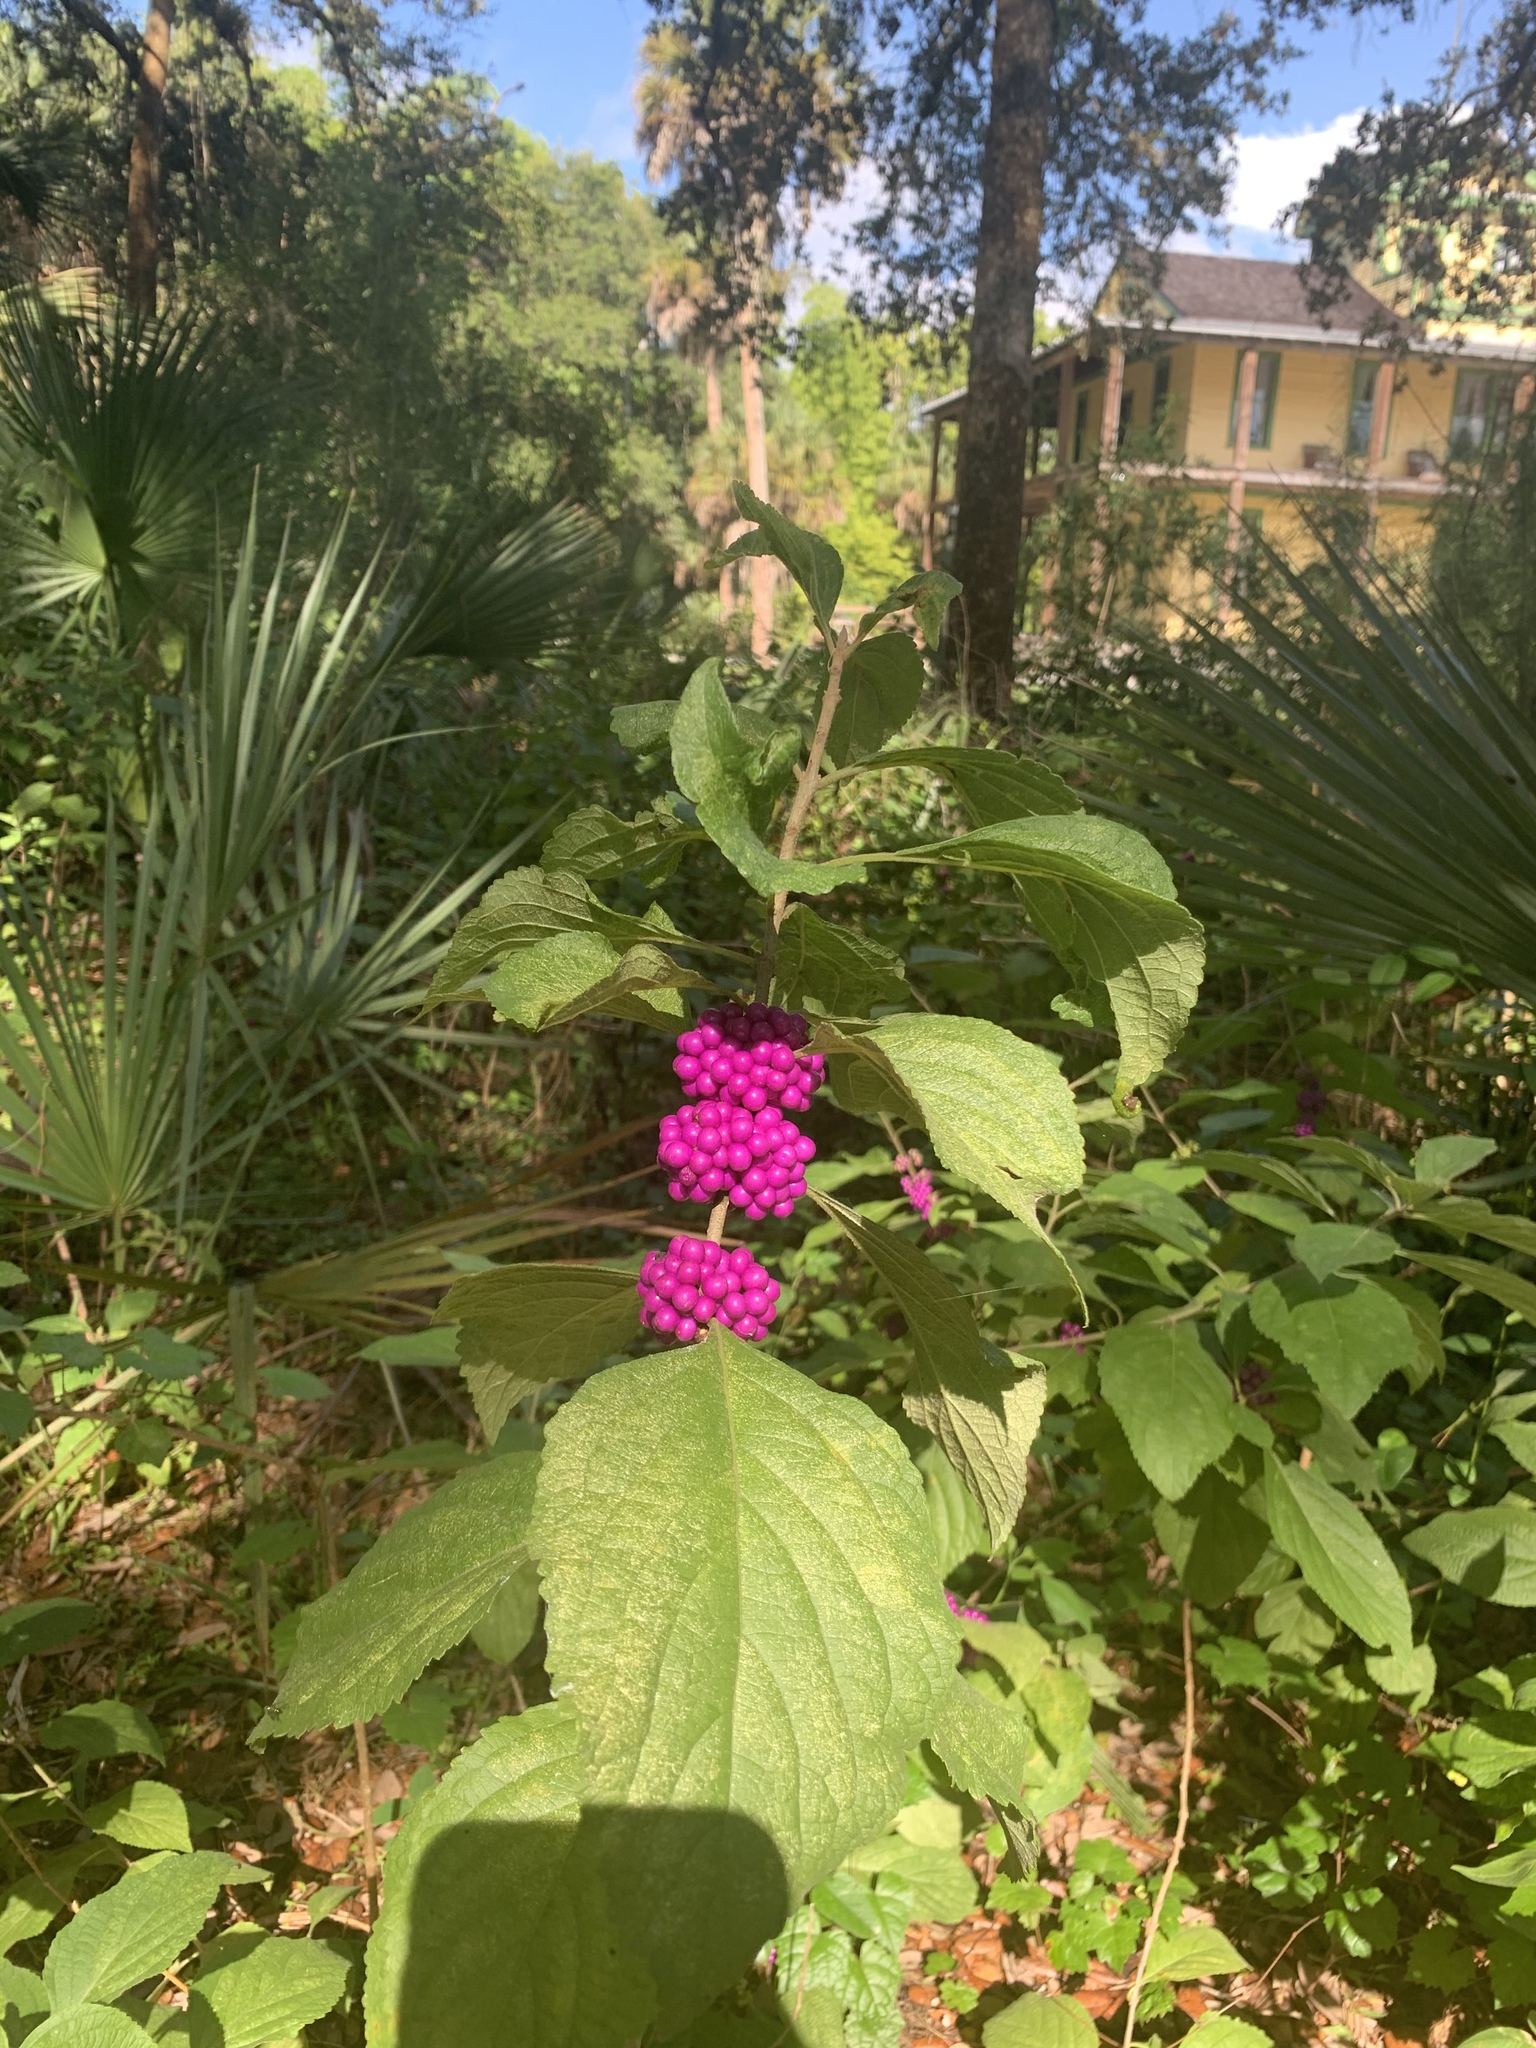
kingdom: Plantae
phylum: Tracheophyta
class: Magnoliopsida
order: Lamiales
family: Lamiaceae
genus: Callicarpa
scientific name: Callicarpa americana
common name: American beautyberry
